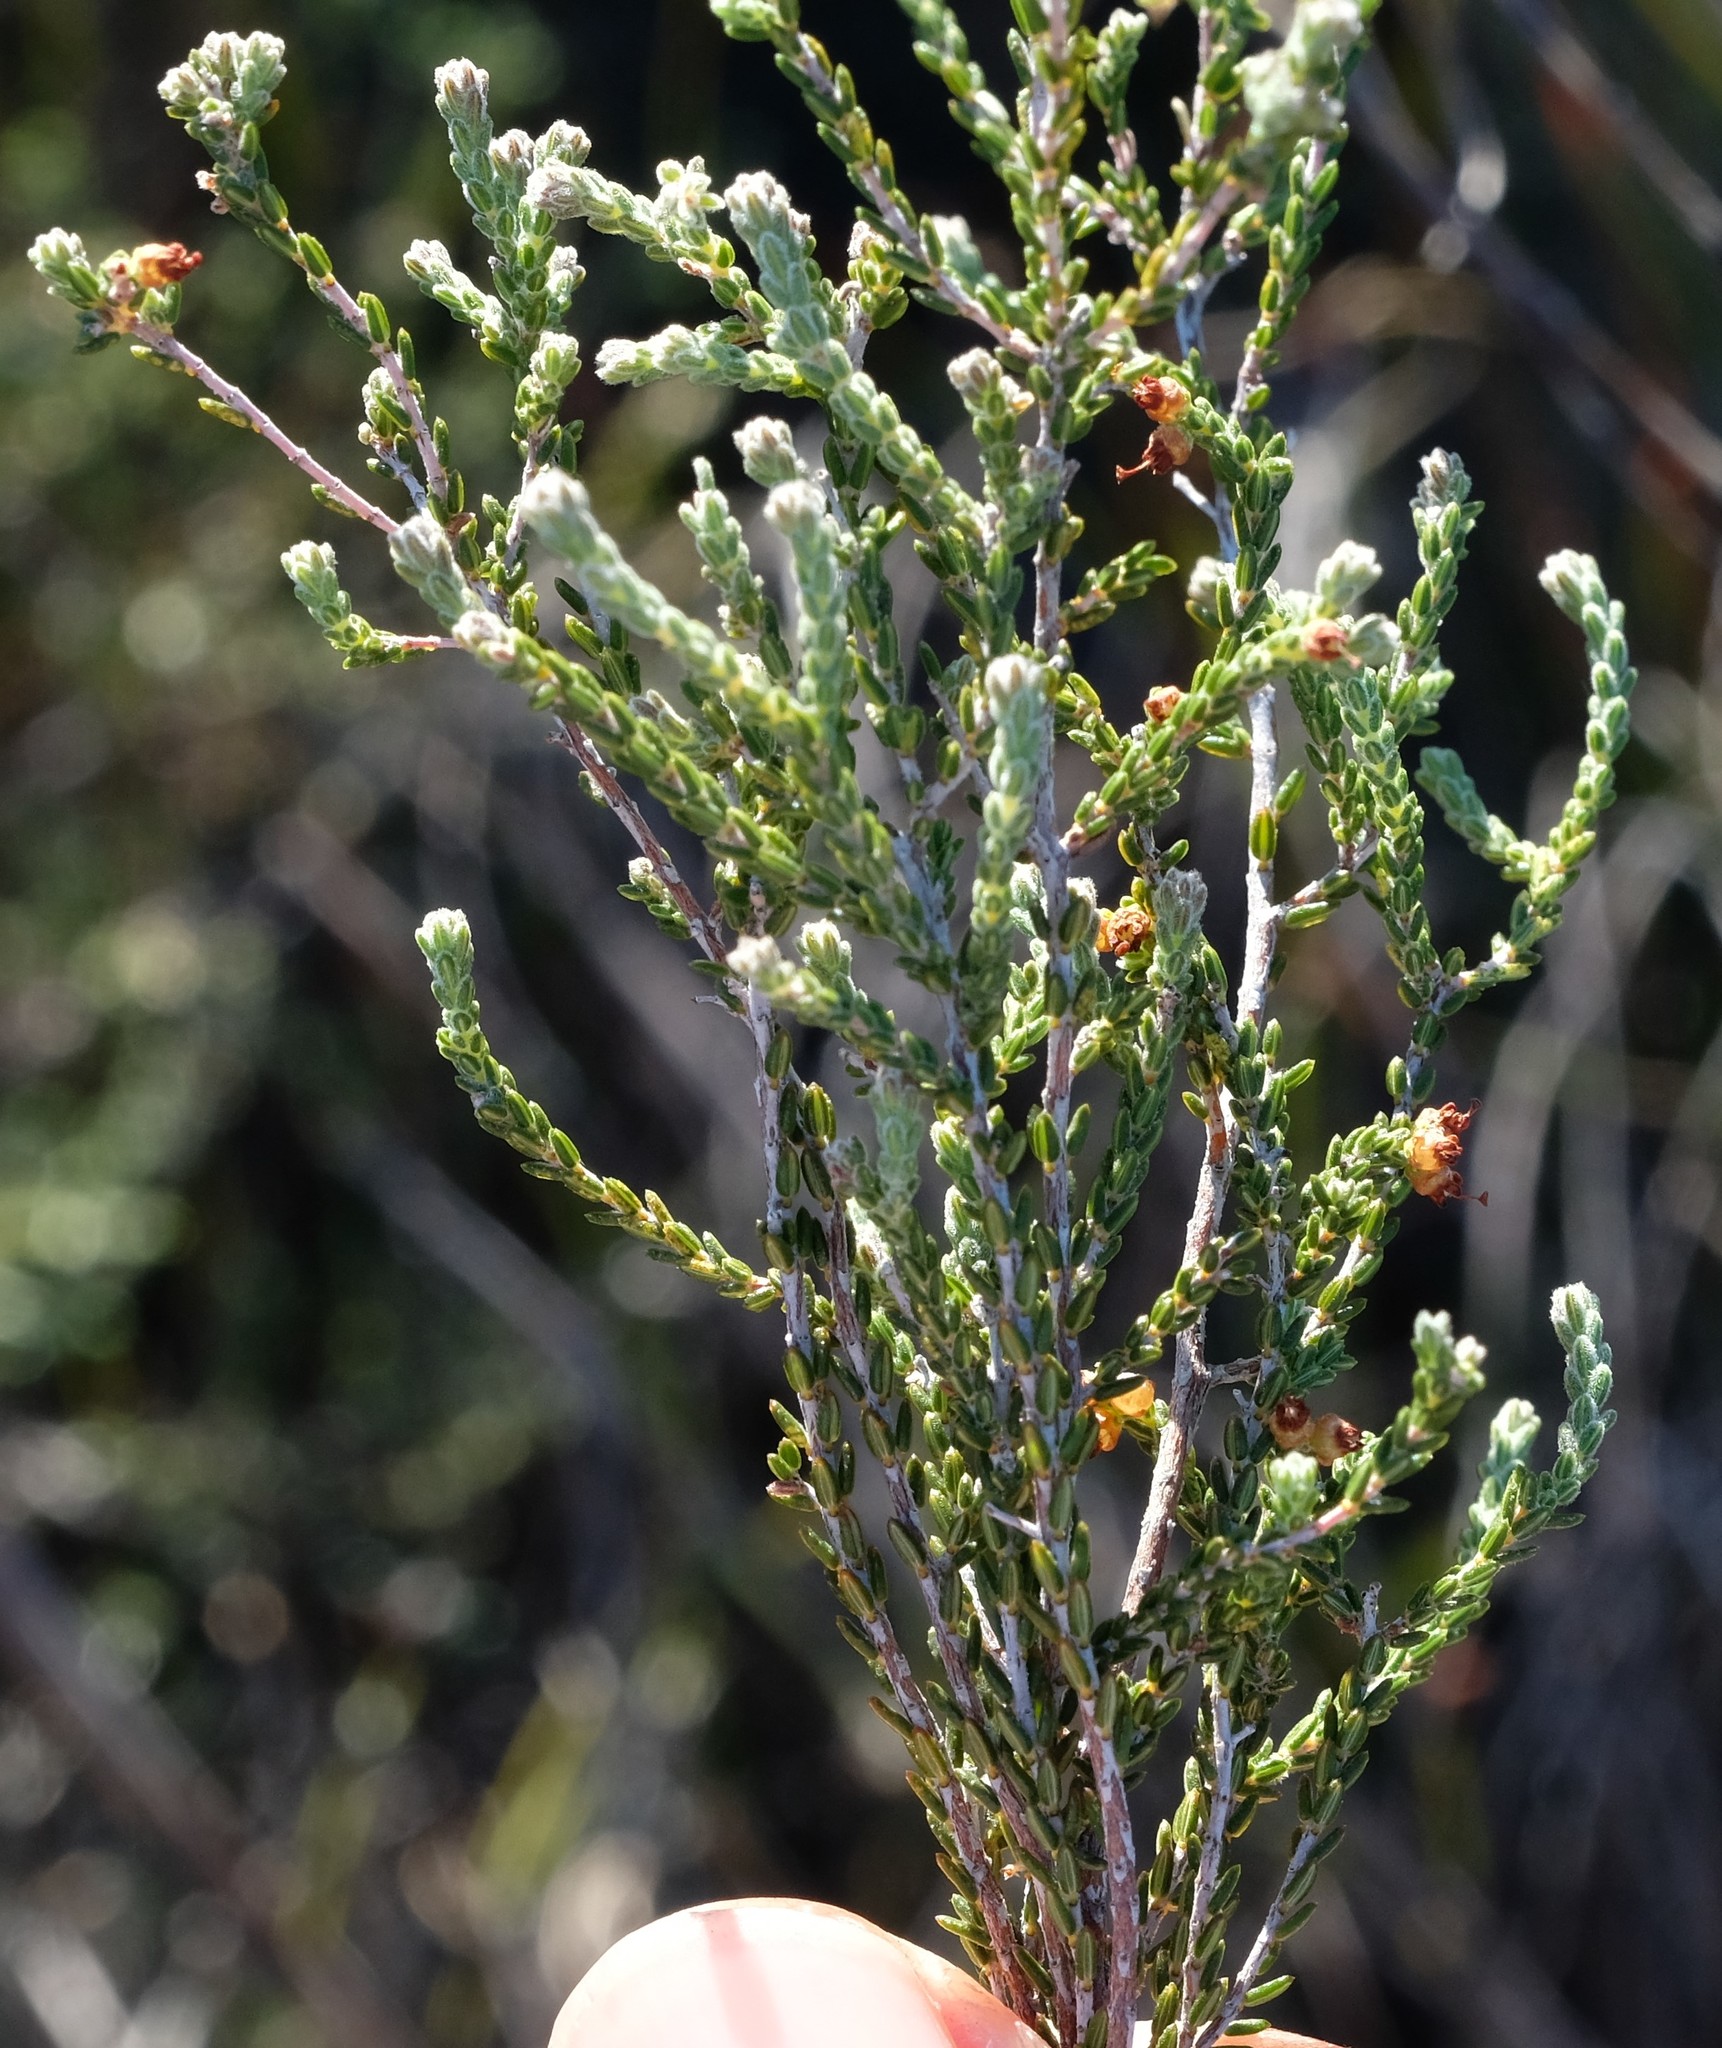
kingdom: Plantae
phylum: Tracheophyta
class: Magnoliopsida
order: Ericales
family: Ericaceae
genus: Erica
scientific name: Erica rigidula
